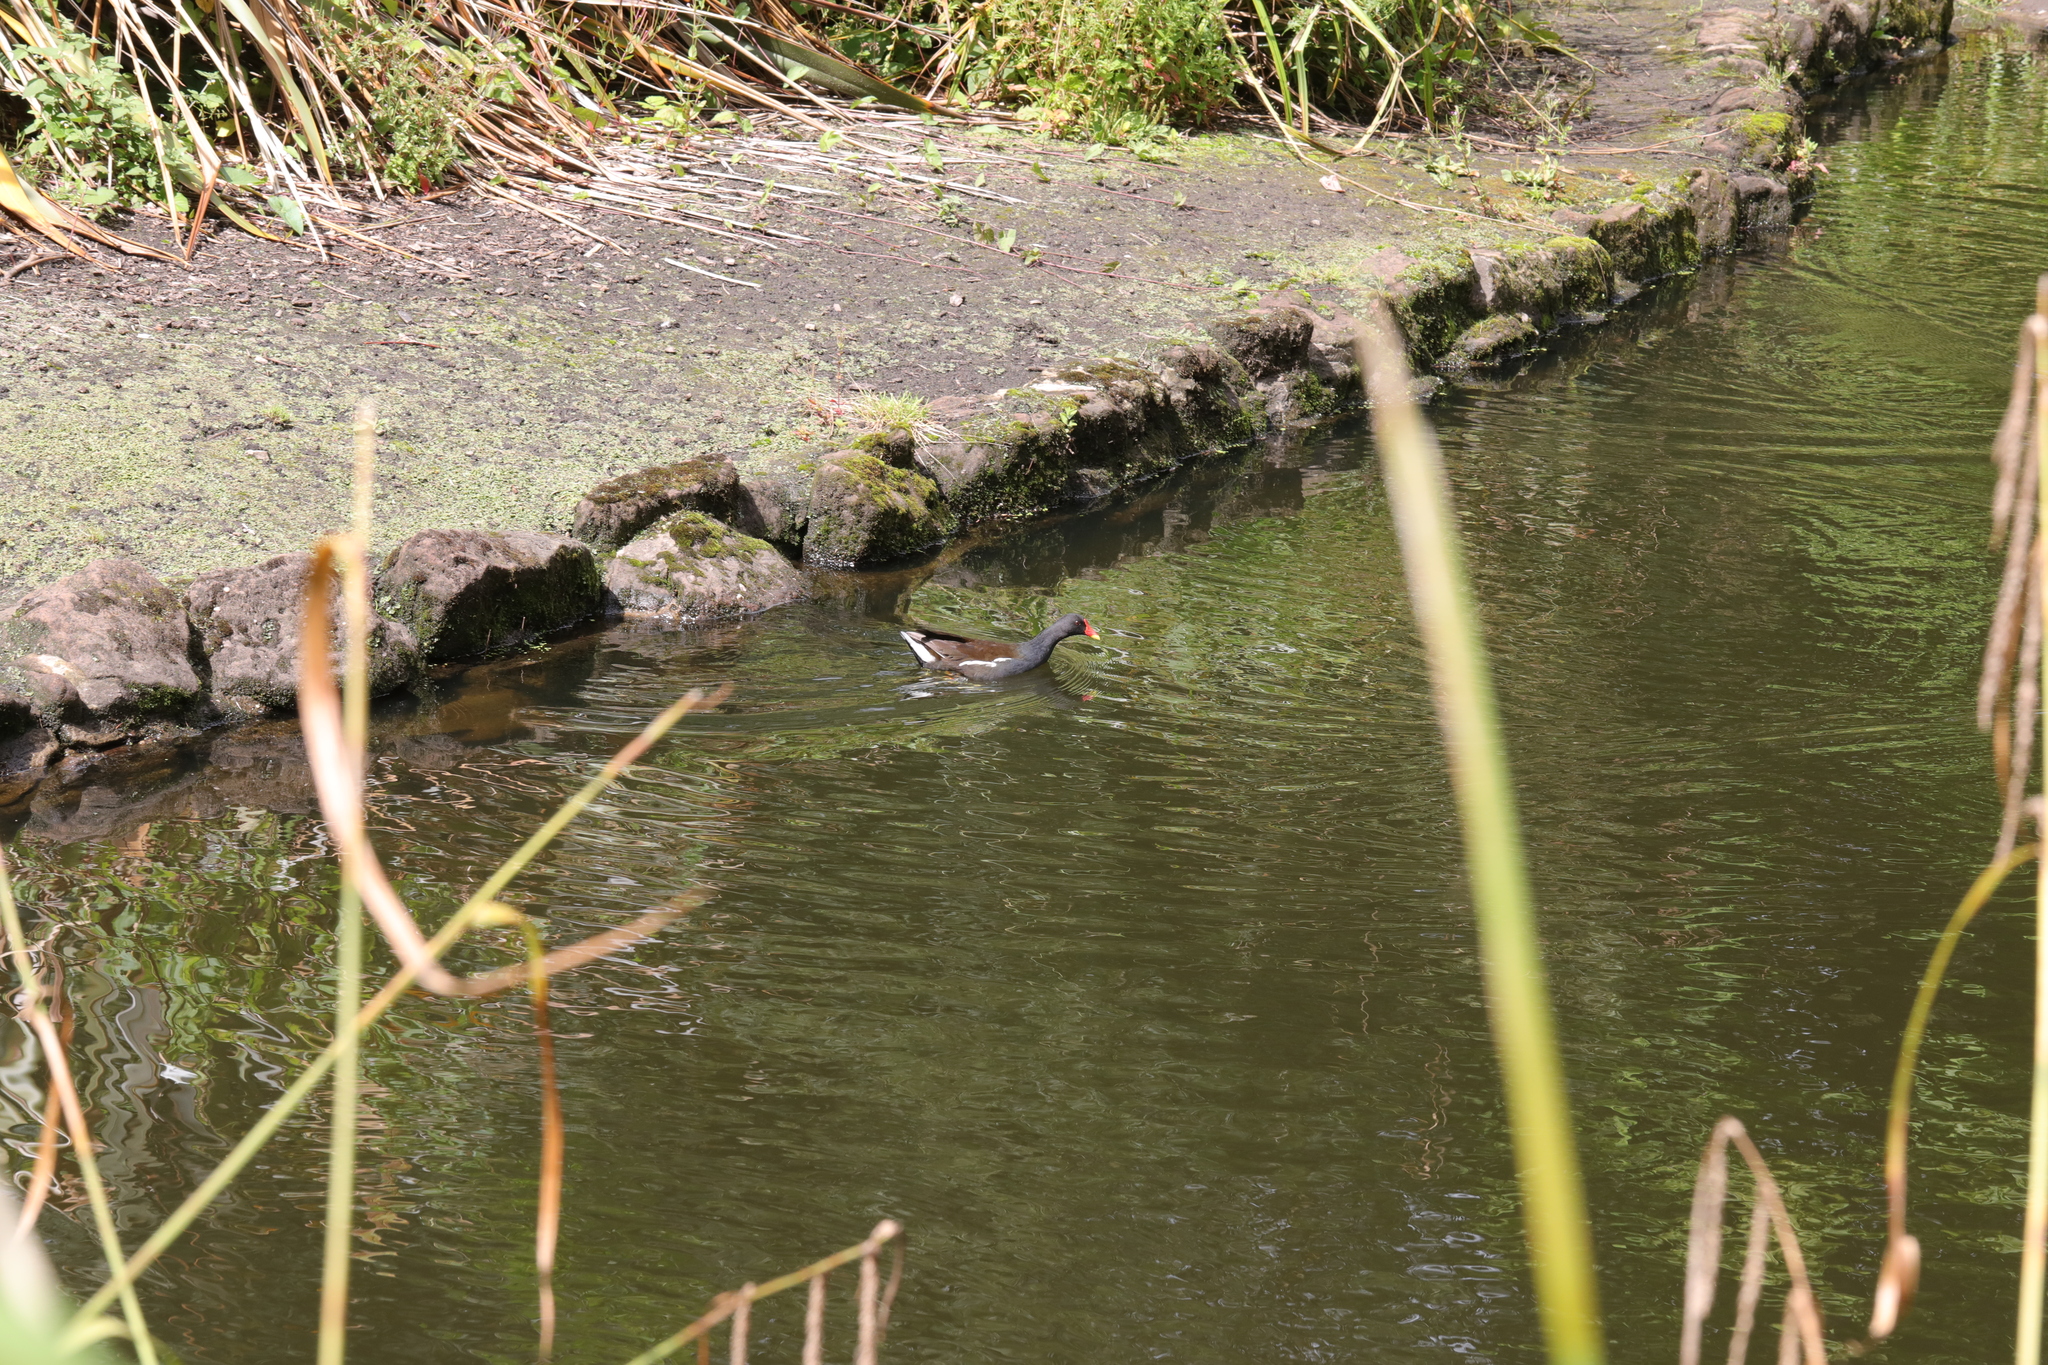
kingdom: Animalia
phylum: Chordata
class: Aves
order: Gruiformes
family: Rallidae
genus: Gallinula
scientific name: Gallinula chloropus
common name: Common moorhen
